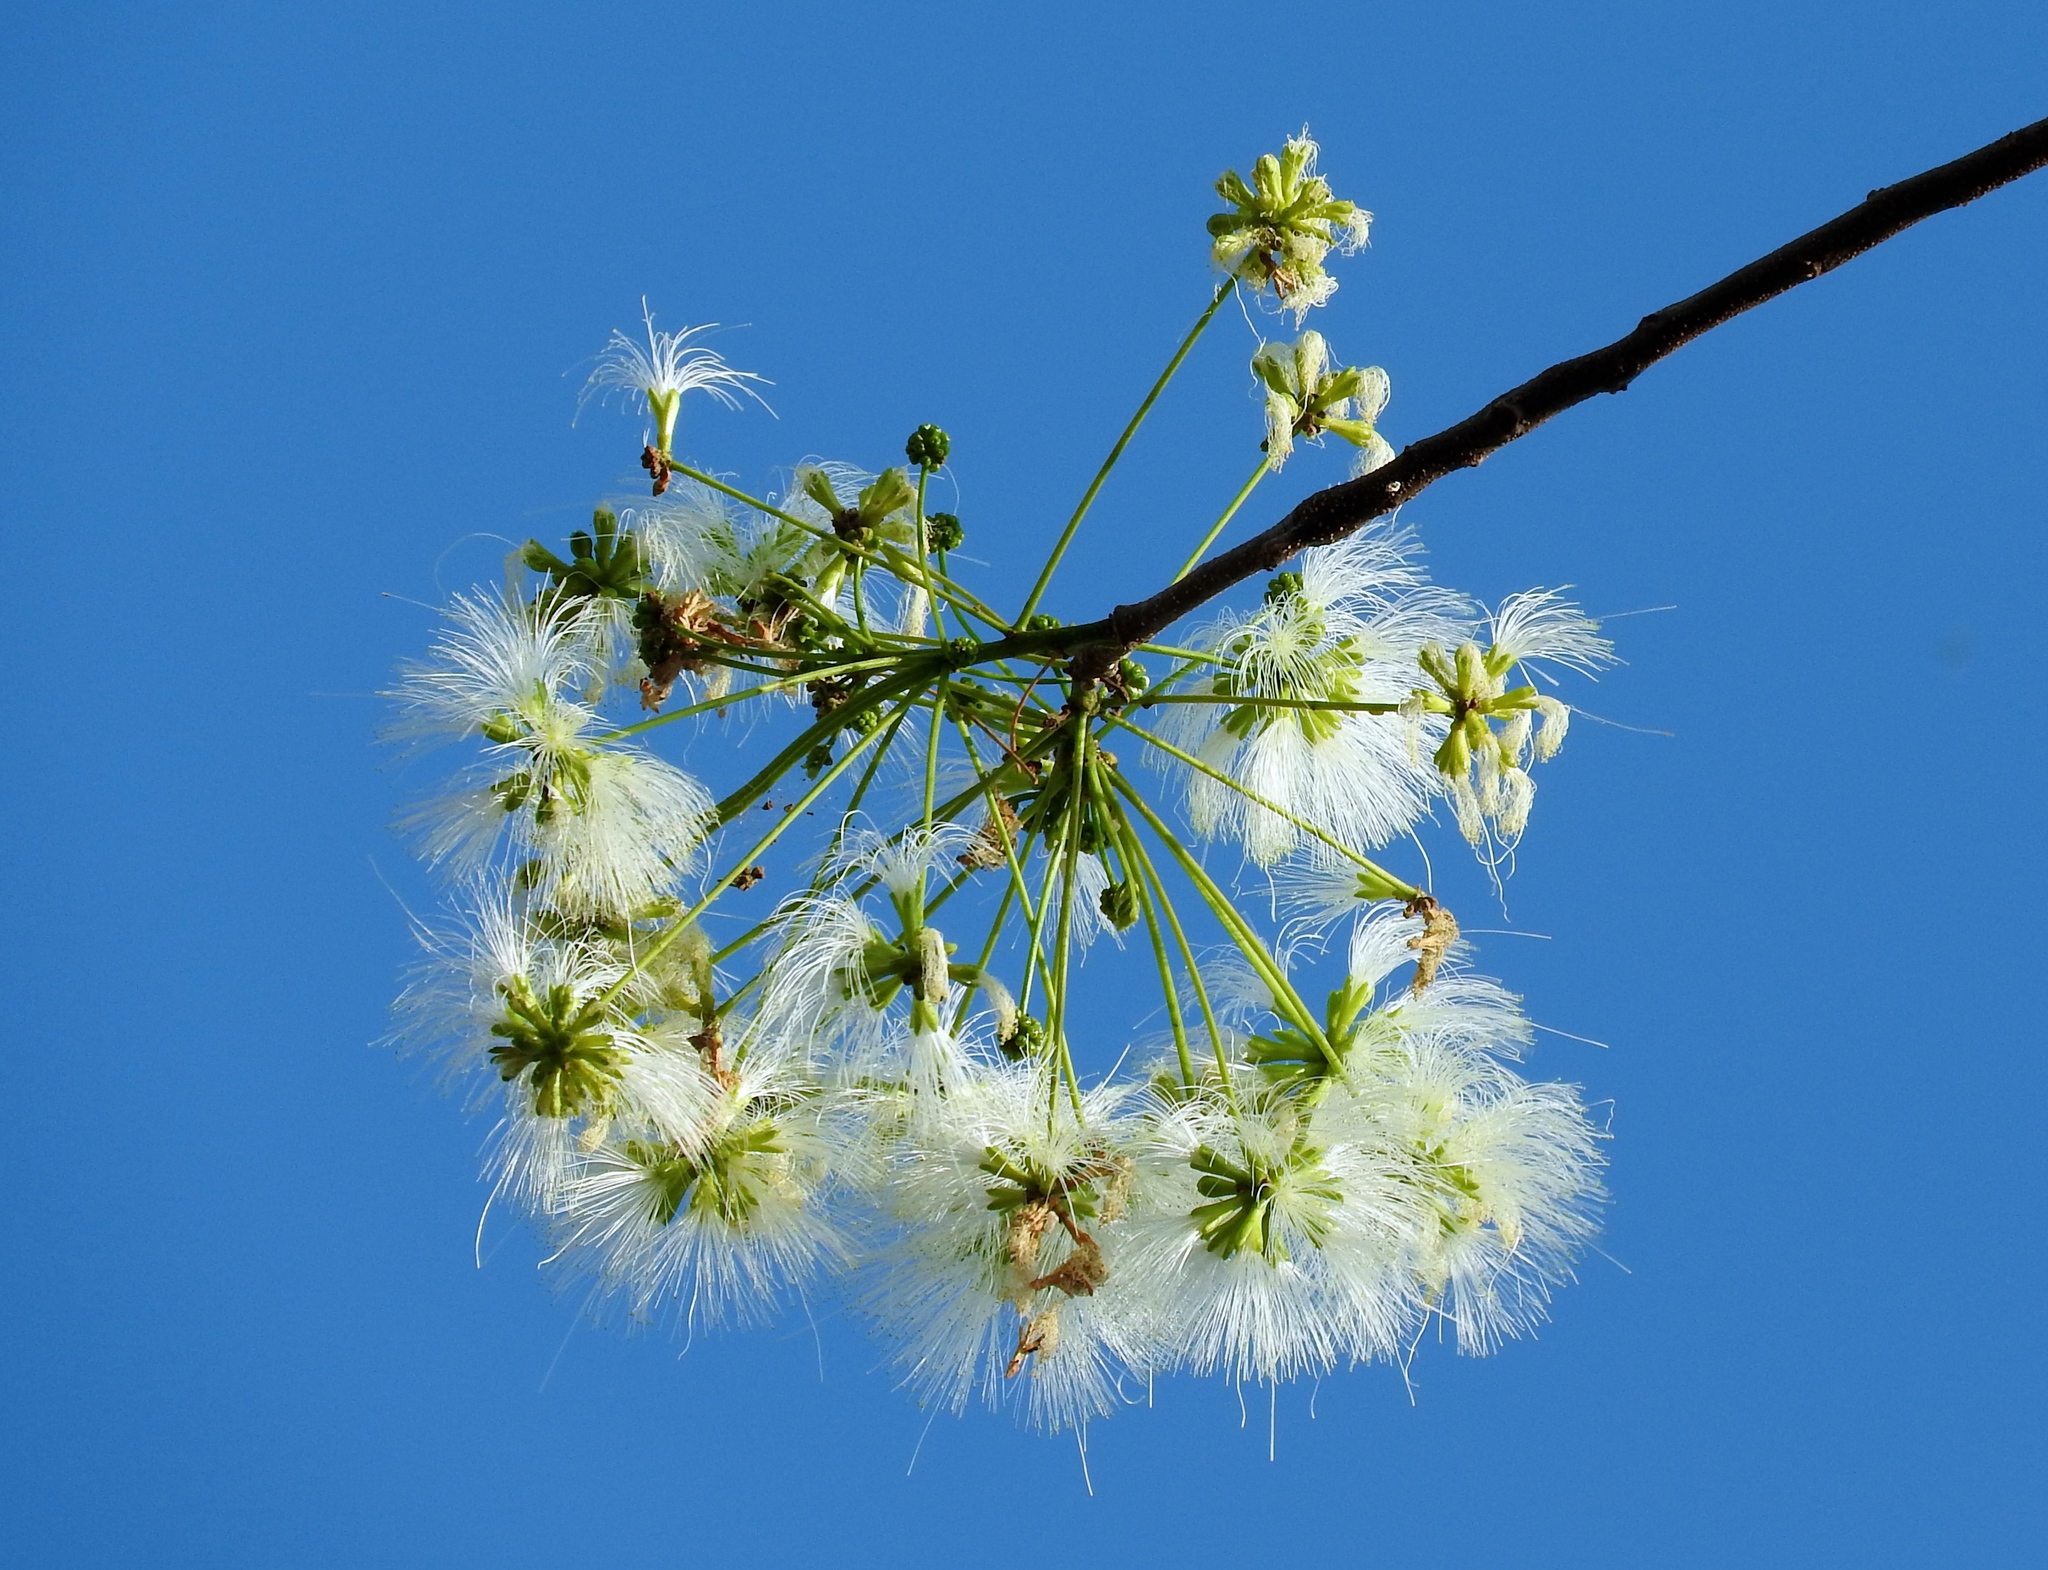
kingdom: Plantae
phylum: Tracheophyta
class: Magnoliopsida
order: Fabales
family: Fabaceae
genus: Albizia
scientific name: Albizia occidentalis
